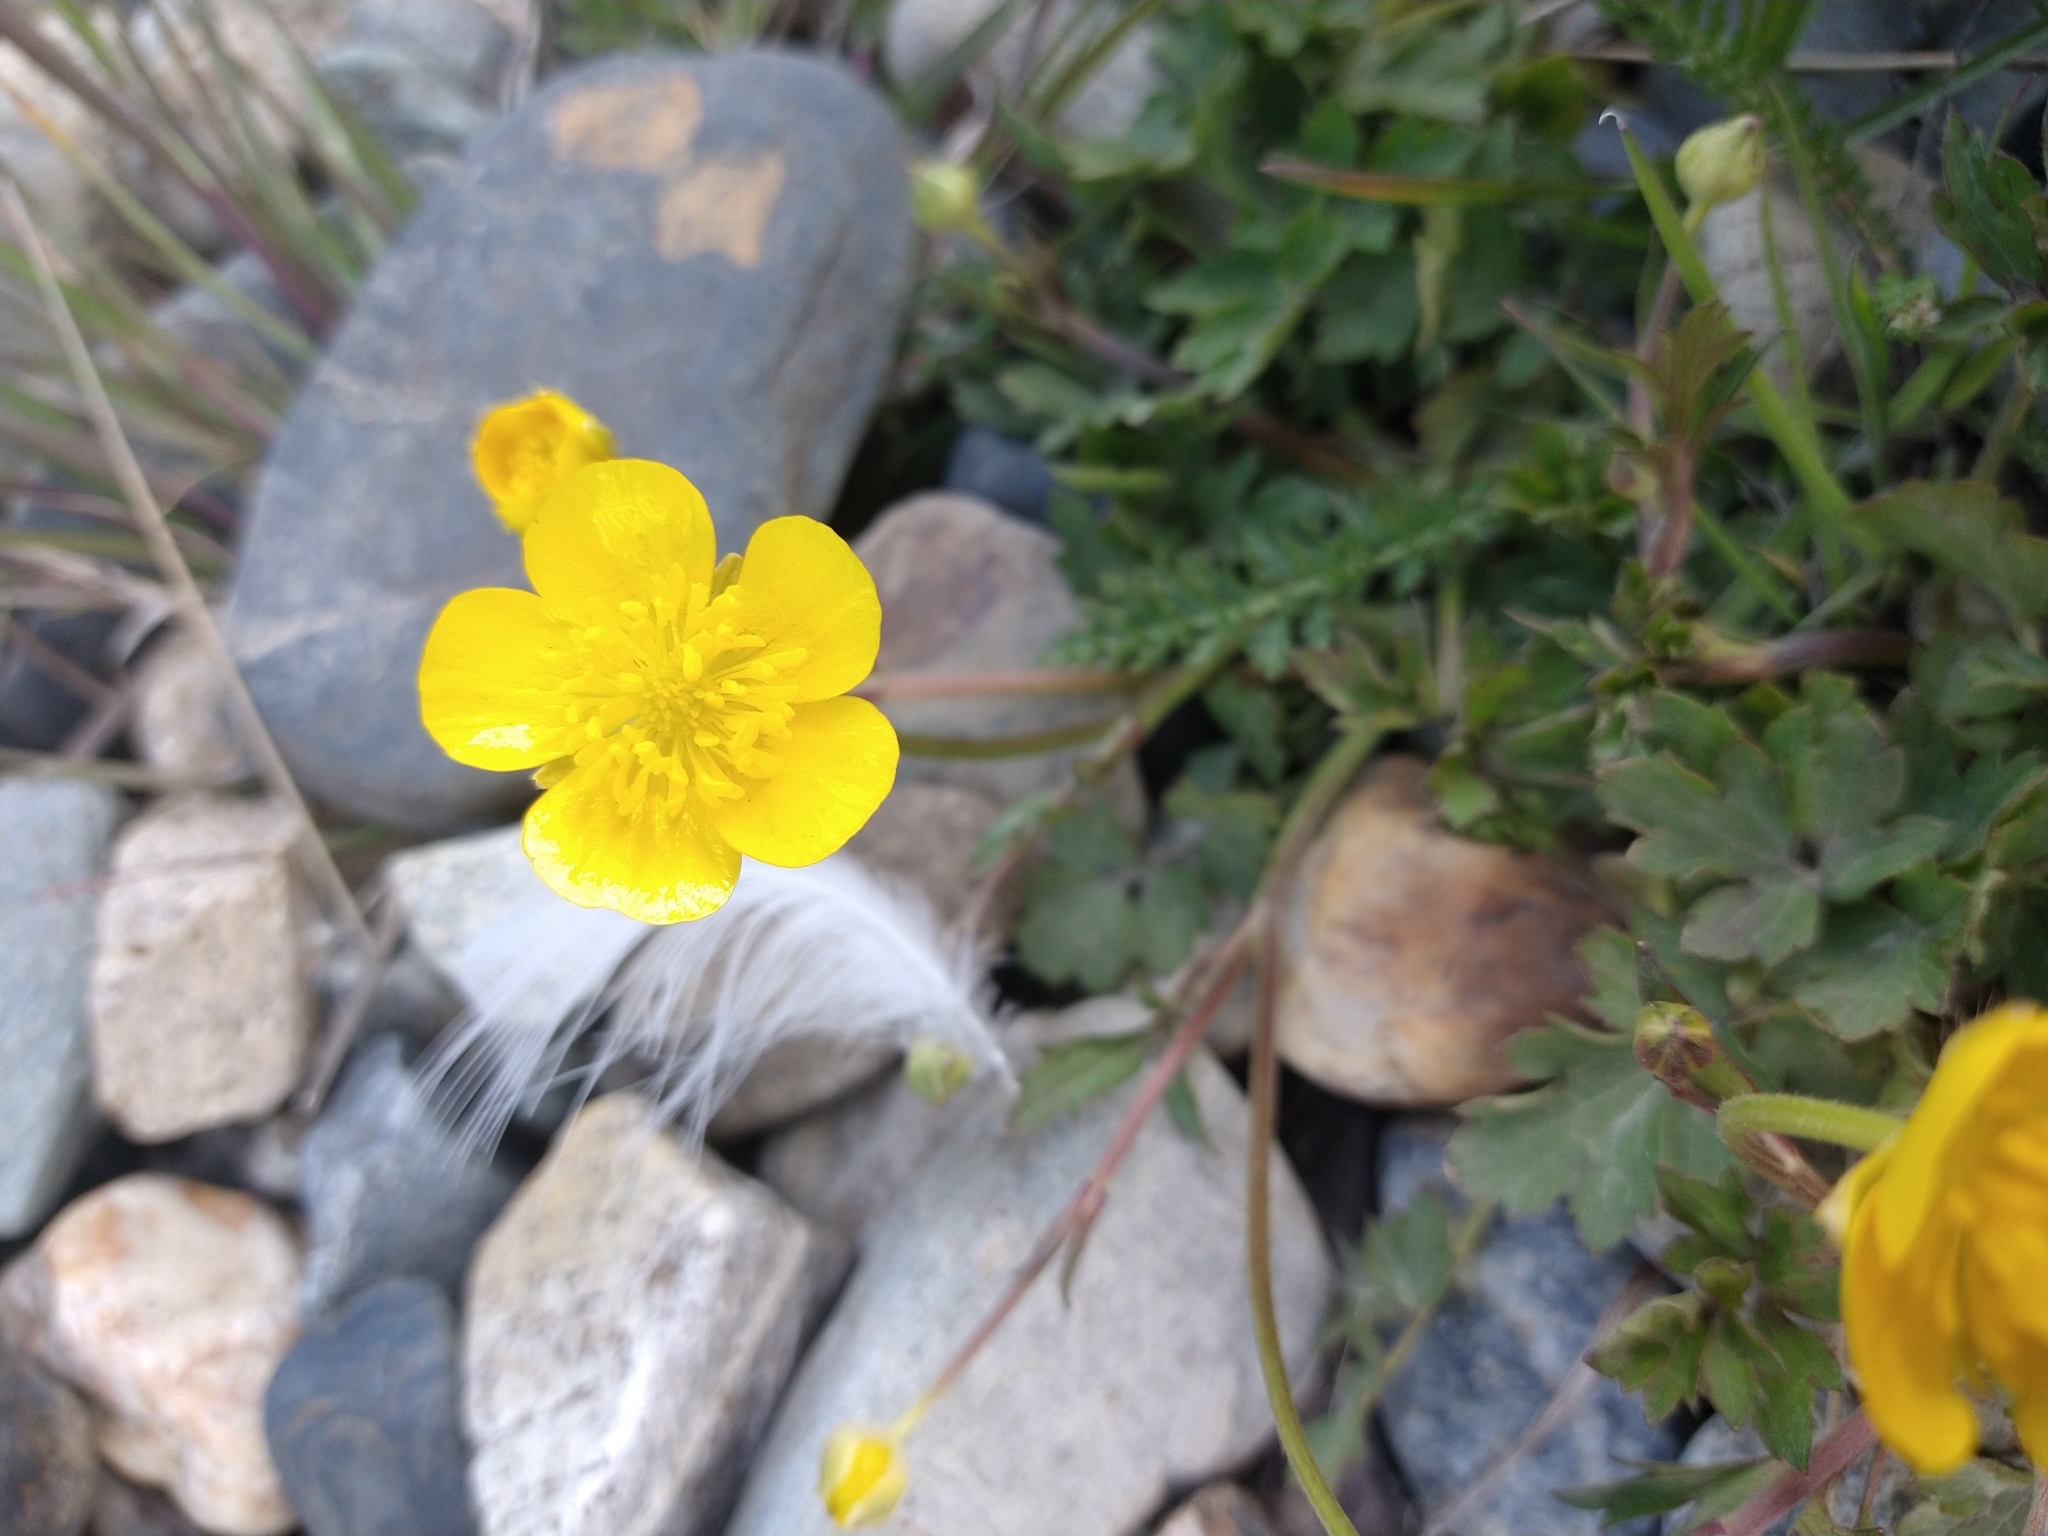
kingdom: Plantae
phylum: Tracheophyta
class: Magnoliopsida
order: Ranunculales
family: Ranunculaceae
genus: Ranunculus
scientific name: Ranunculus repens
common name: Creeping buttercup
